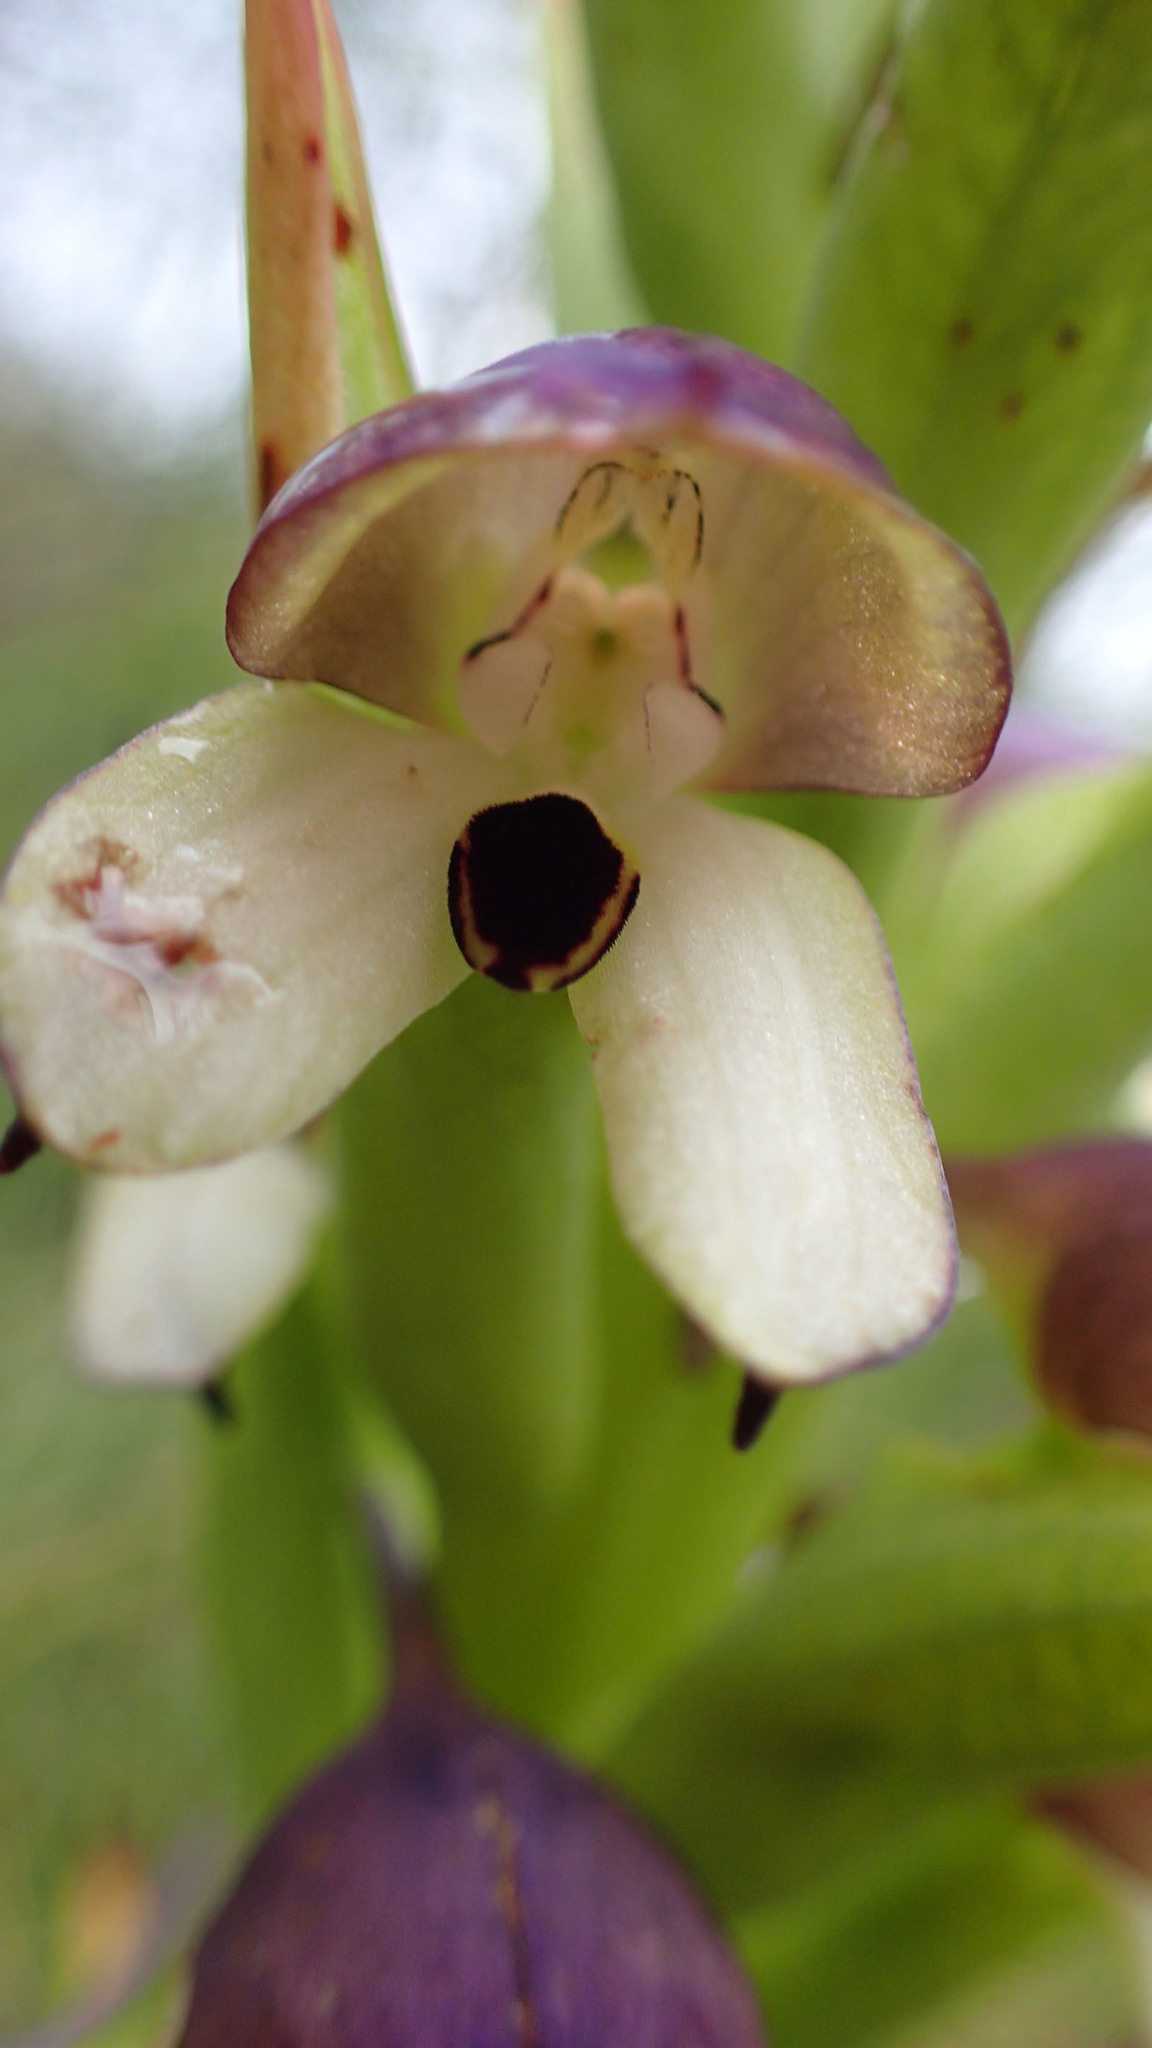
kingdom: Plantae
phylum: Tracheophyta
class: Liliopsida
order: Asparagales
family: Orchidaceae
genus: Disa
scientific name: Disa cornuta
